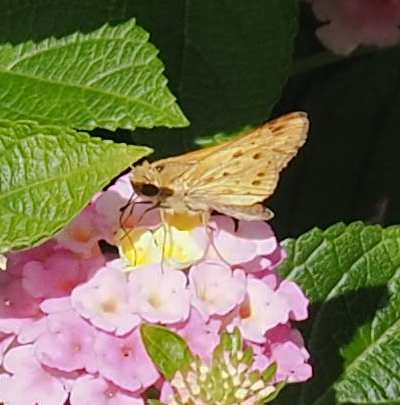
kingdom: Animalia
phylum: Arthropoda
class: Insecta
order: Lepidoptera
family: Hesperiidae
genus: Hylephila
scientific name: Hylephila phyleus
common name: Fiery skipper
